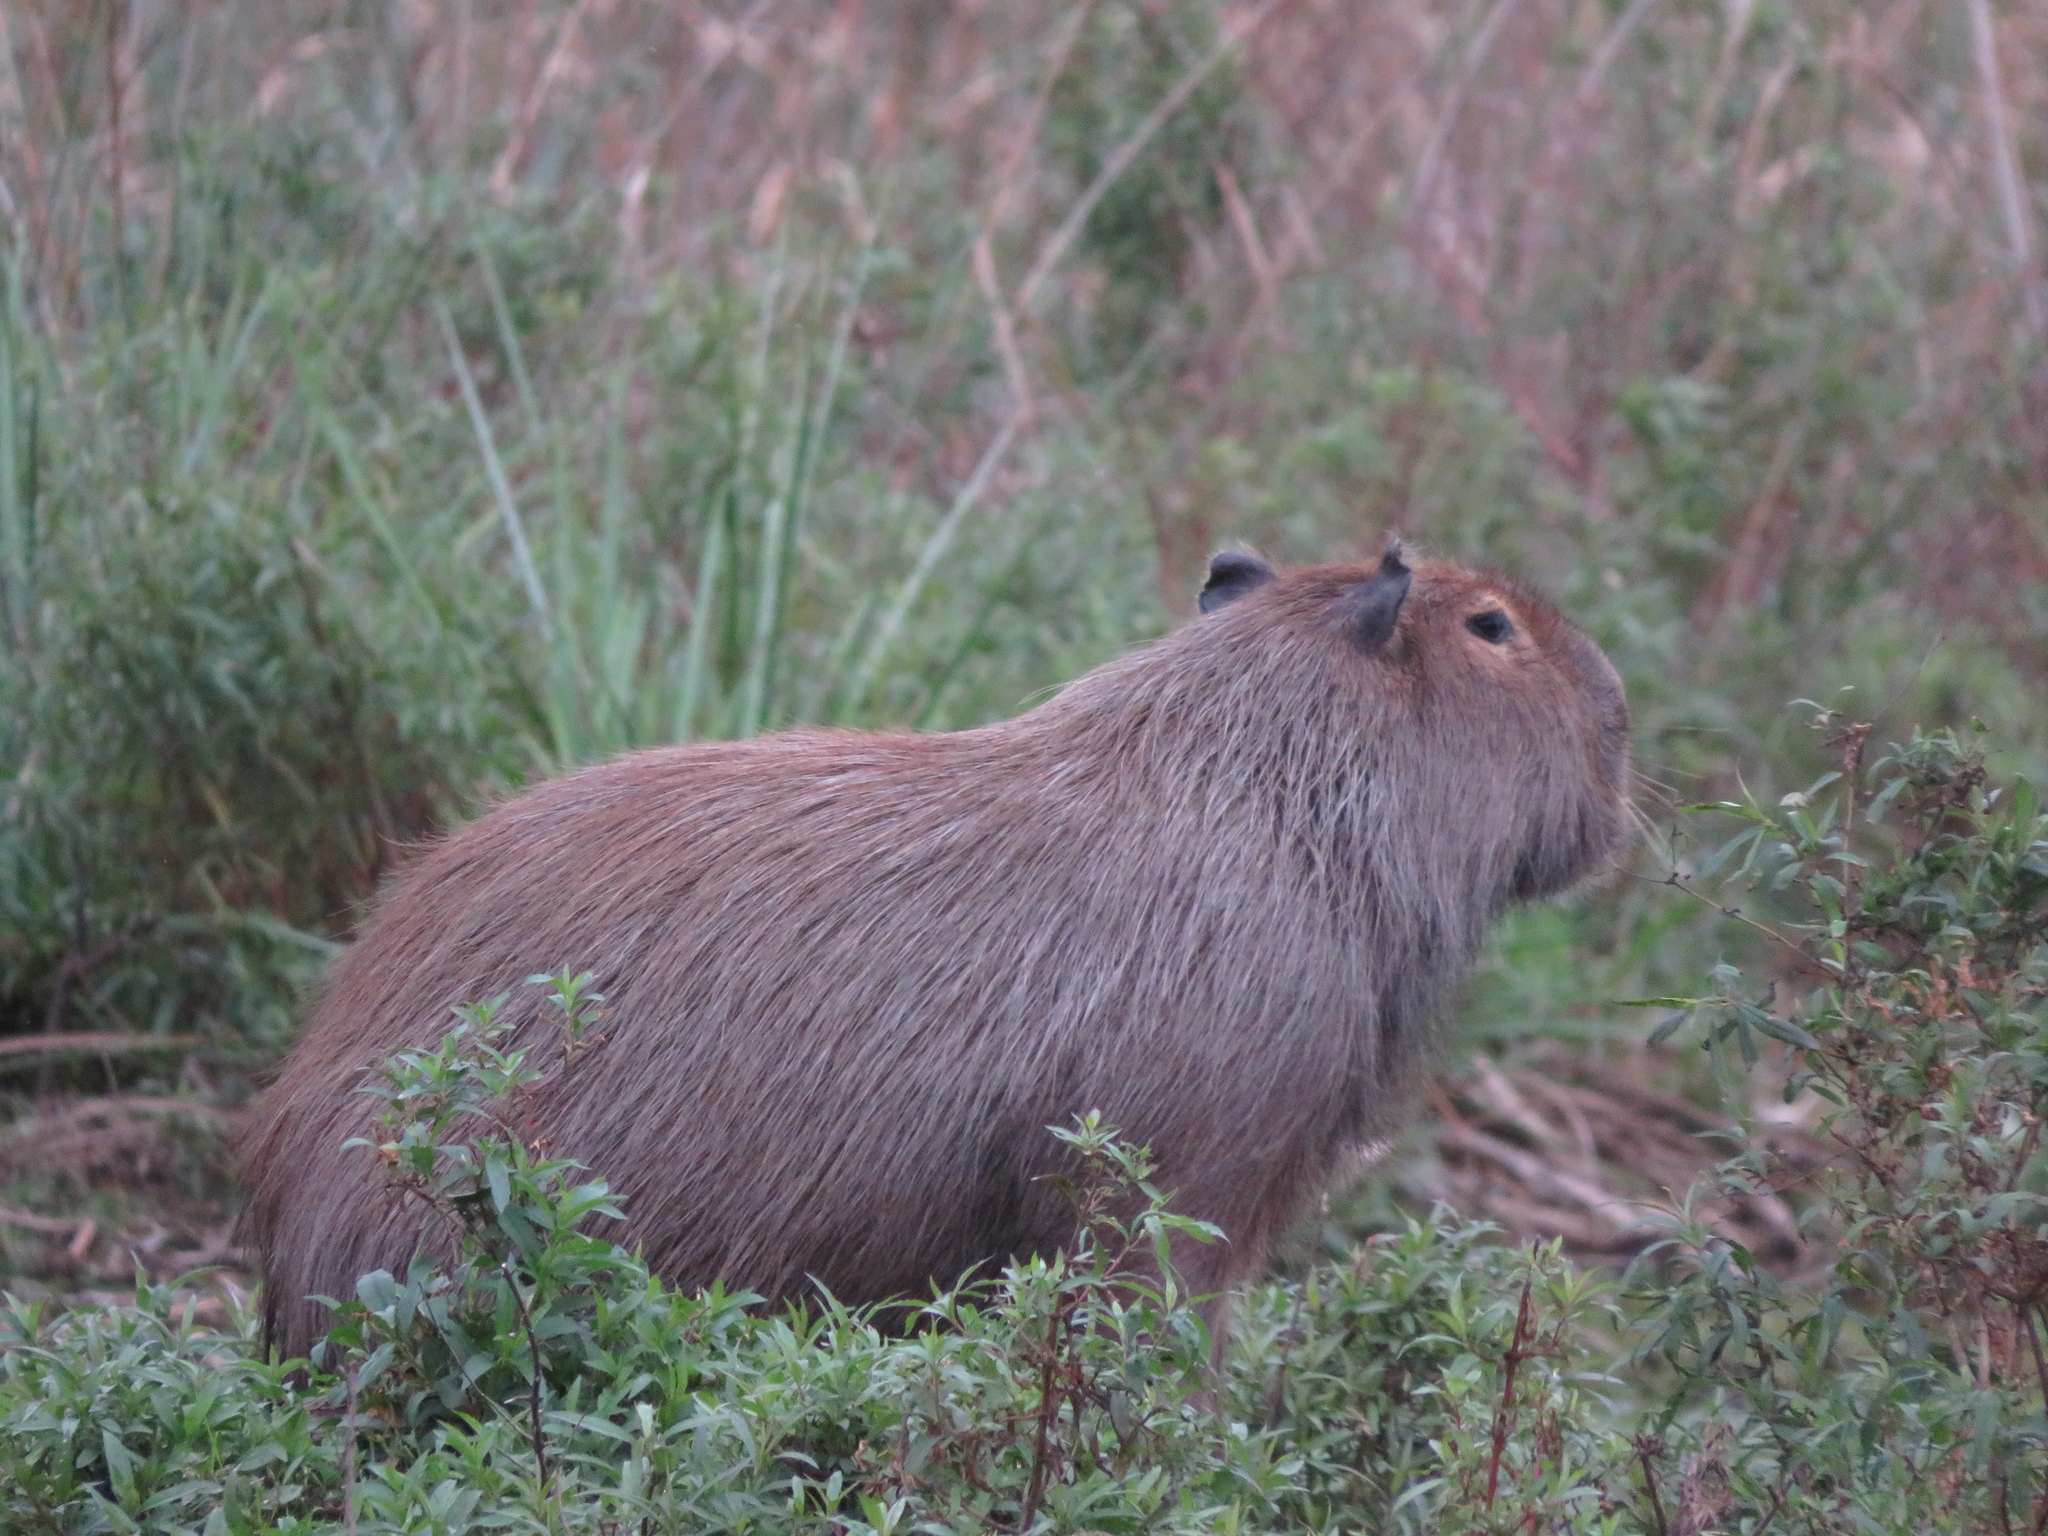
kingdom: Animalia
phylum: Chordata
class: Mammalia
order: Rodentia
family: Caviidae
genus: Hydrochoerus
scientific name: Hydrochoerus hydrochaeris
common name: Capybara
